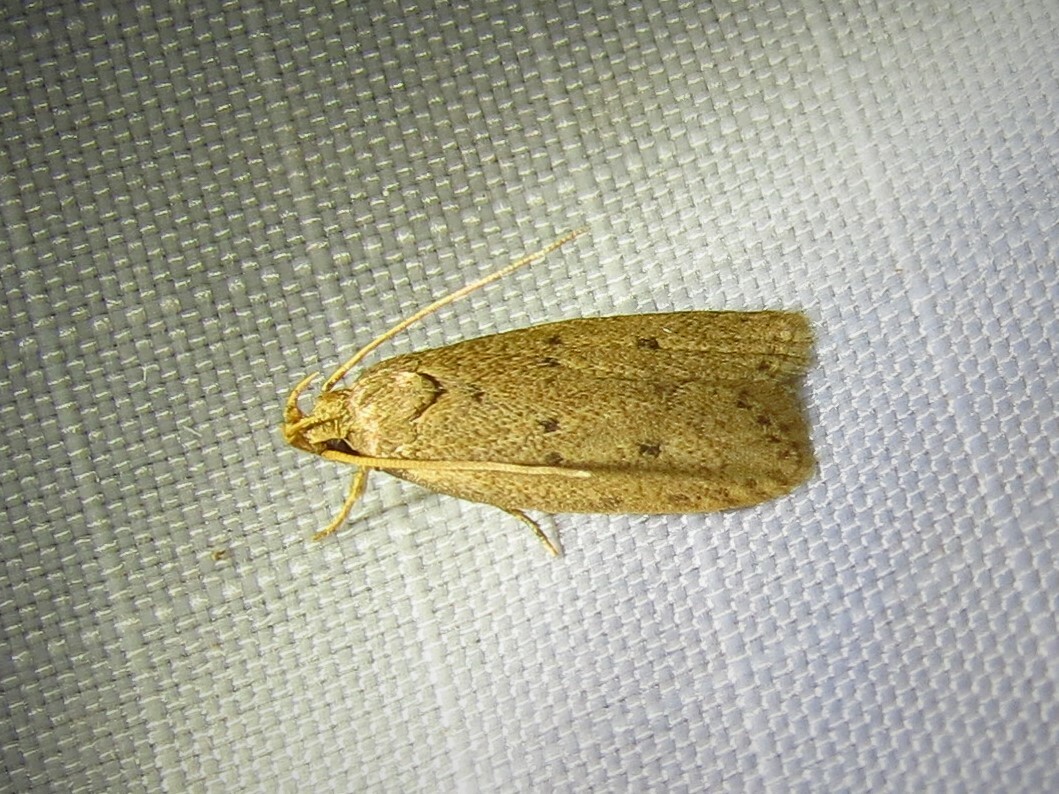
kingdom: Animalia
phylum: Arthropoda
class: Insecta
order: Lepidoptera
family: Autostichidae
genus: Autosticha
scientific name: Autosticha kyotensis
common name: Kyoto moth
